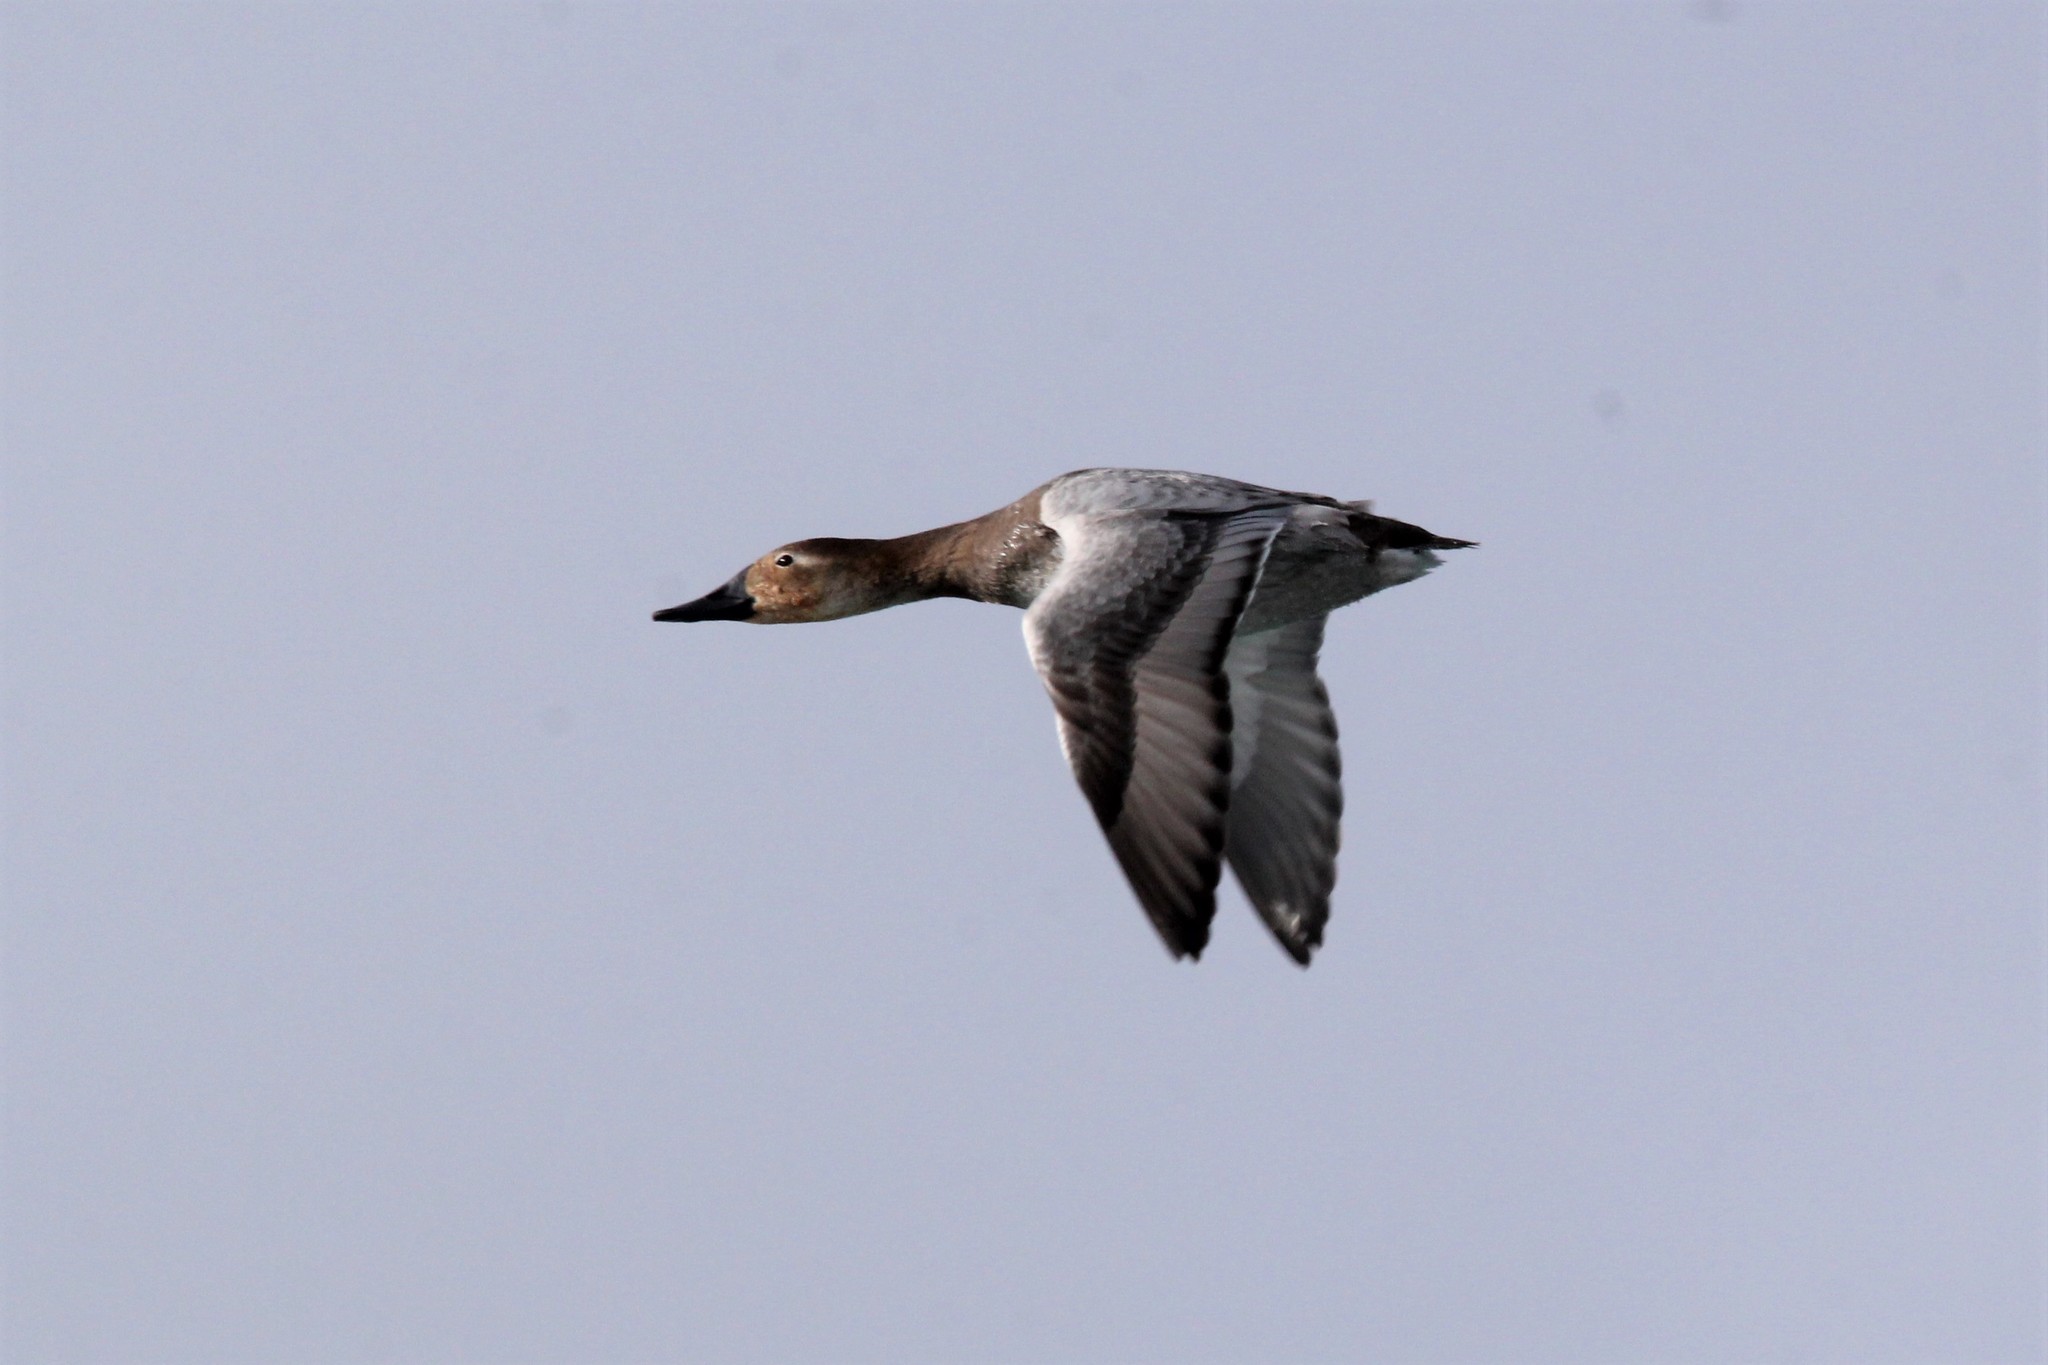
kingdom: Animalia
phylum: Chordata
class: Aves
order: Anseriformes
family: Anatidae
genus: Aythya
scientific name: Aythya valisineria
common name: Canvasback
